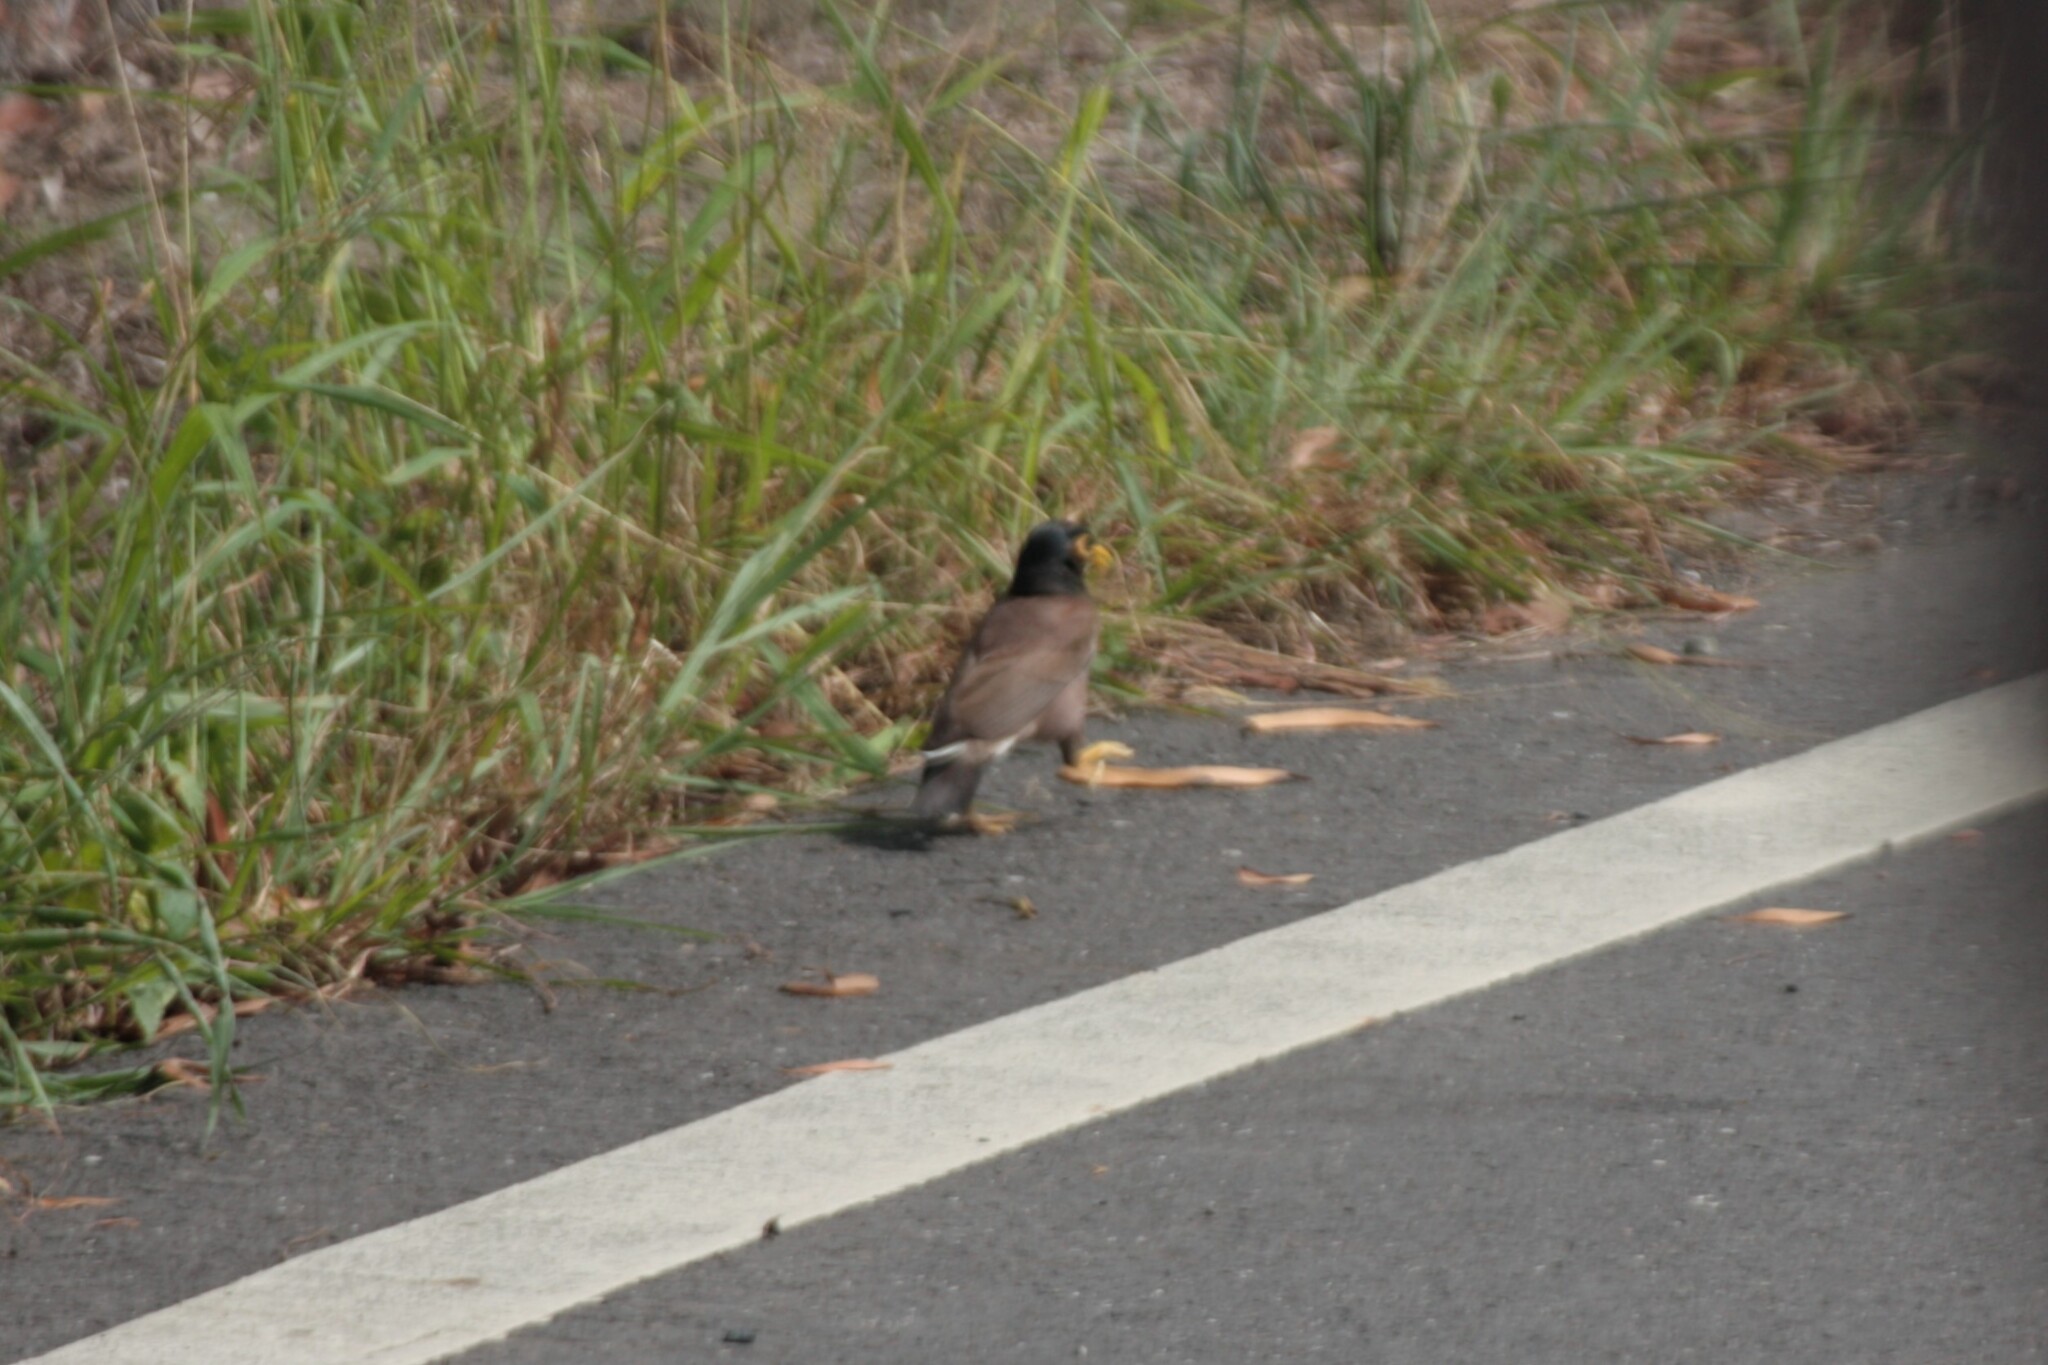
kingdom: Animalia
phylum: Chordata
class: Aves
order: Passeriformes
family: Sturnidae
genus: Acridotheres
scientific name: Acridotheres tristis
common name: Common myna
